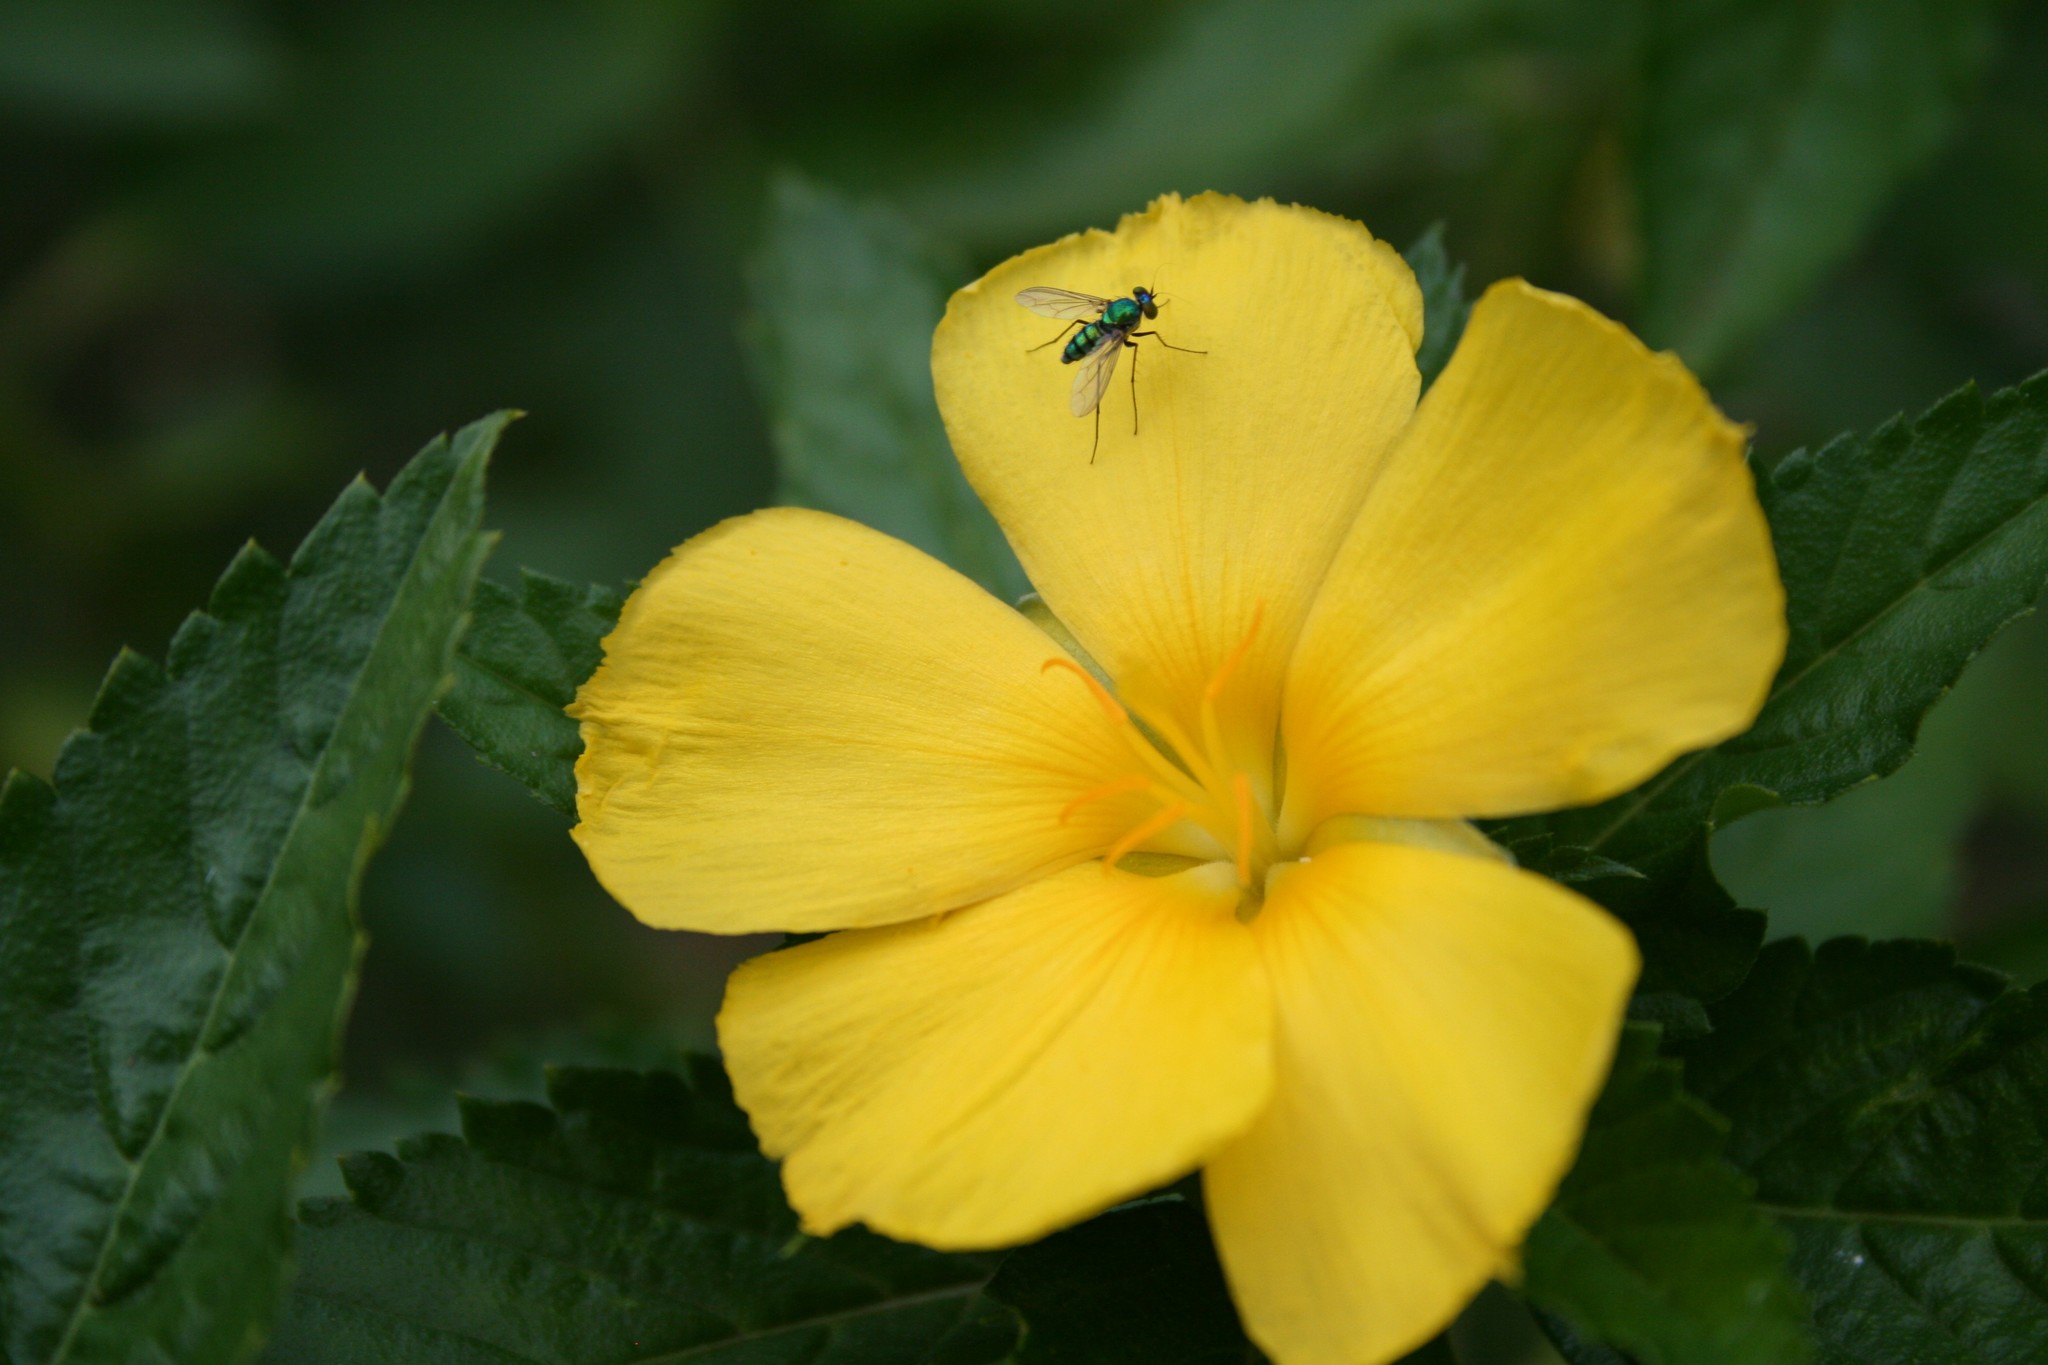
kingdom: Plantae
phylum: Tracheophyta
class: Magnoliopsida
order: Malpighiales
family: Turneraceae
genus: Turnera
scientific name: Turnera ulmifolia
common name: Ramgoat dashalong
